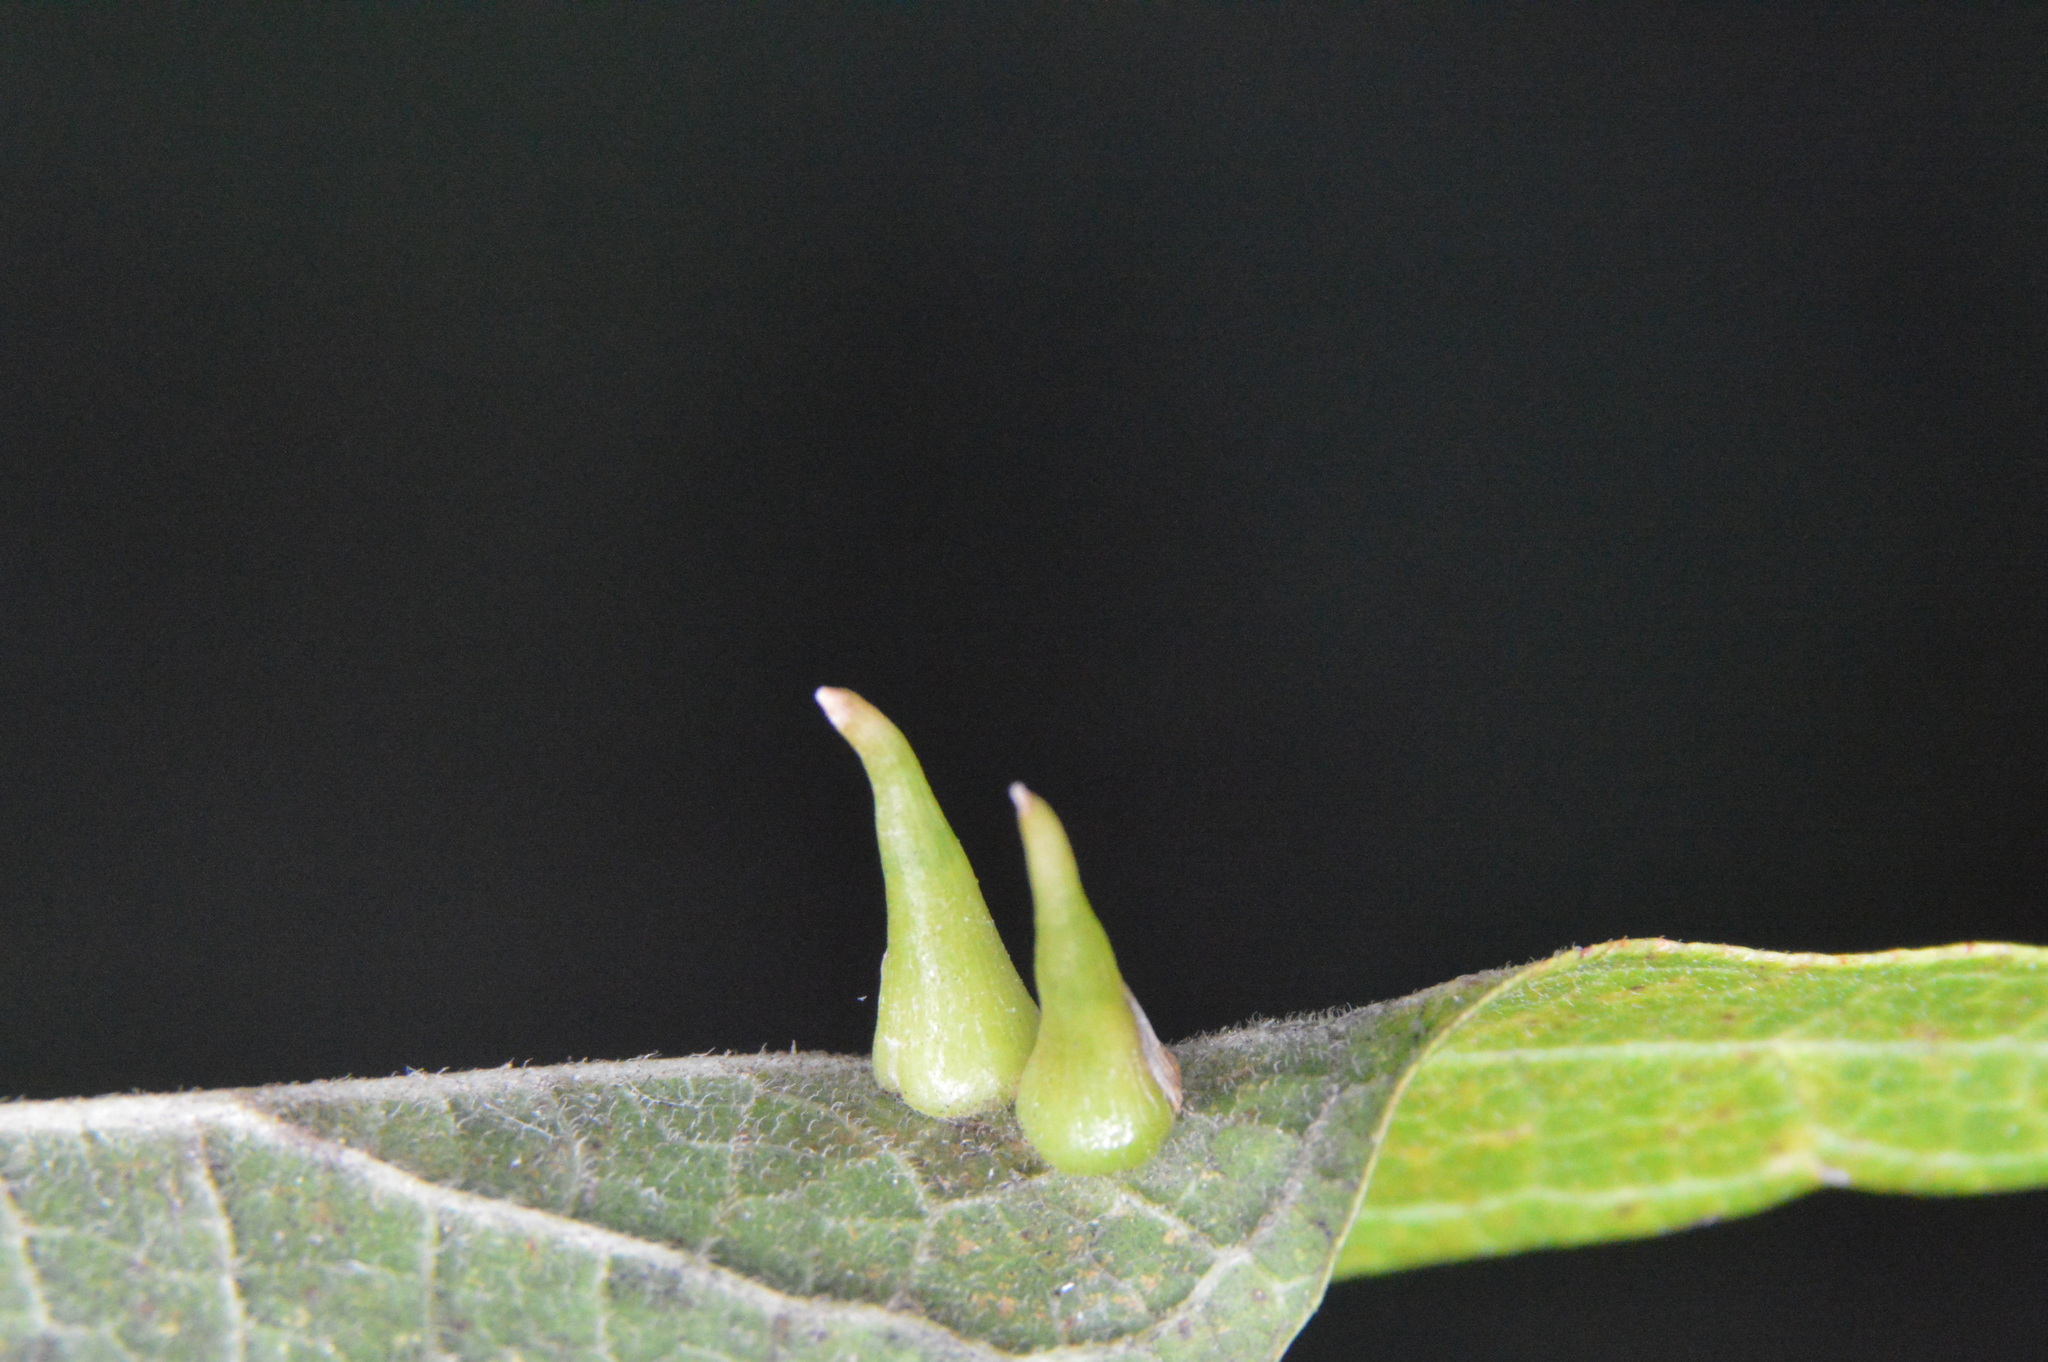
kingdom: Animalia
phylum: Arthropoda
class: Insecta
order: Diptera
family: Cecidomyiidae
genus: Celticecis
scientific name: Celticecis subulata
